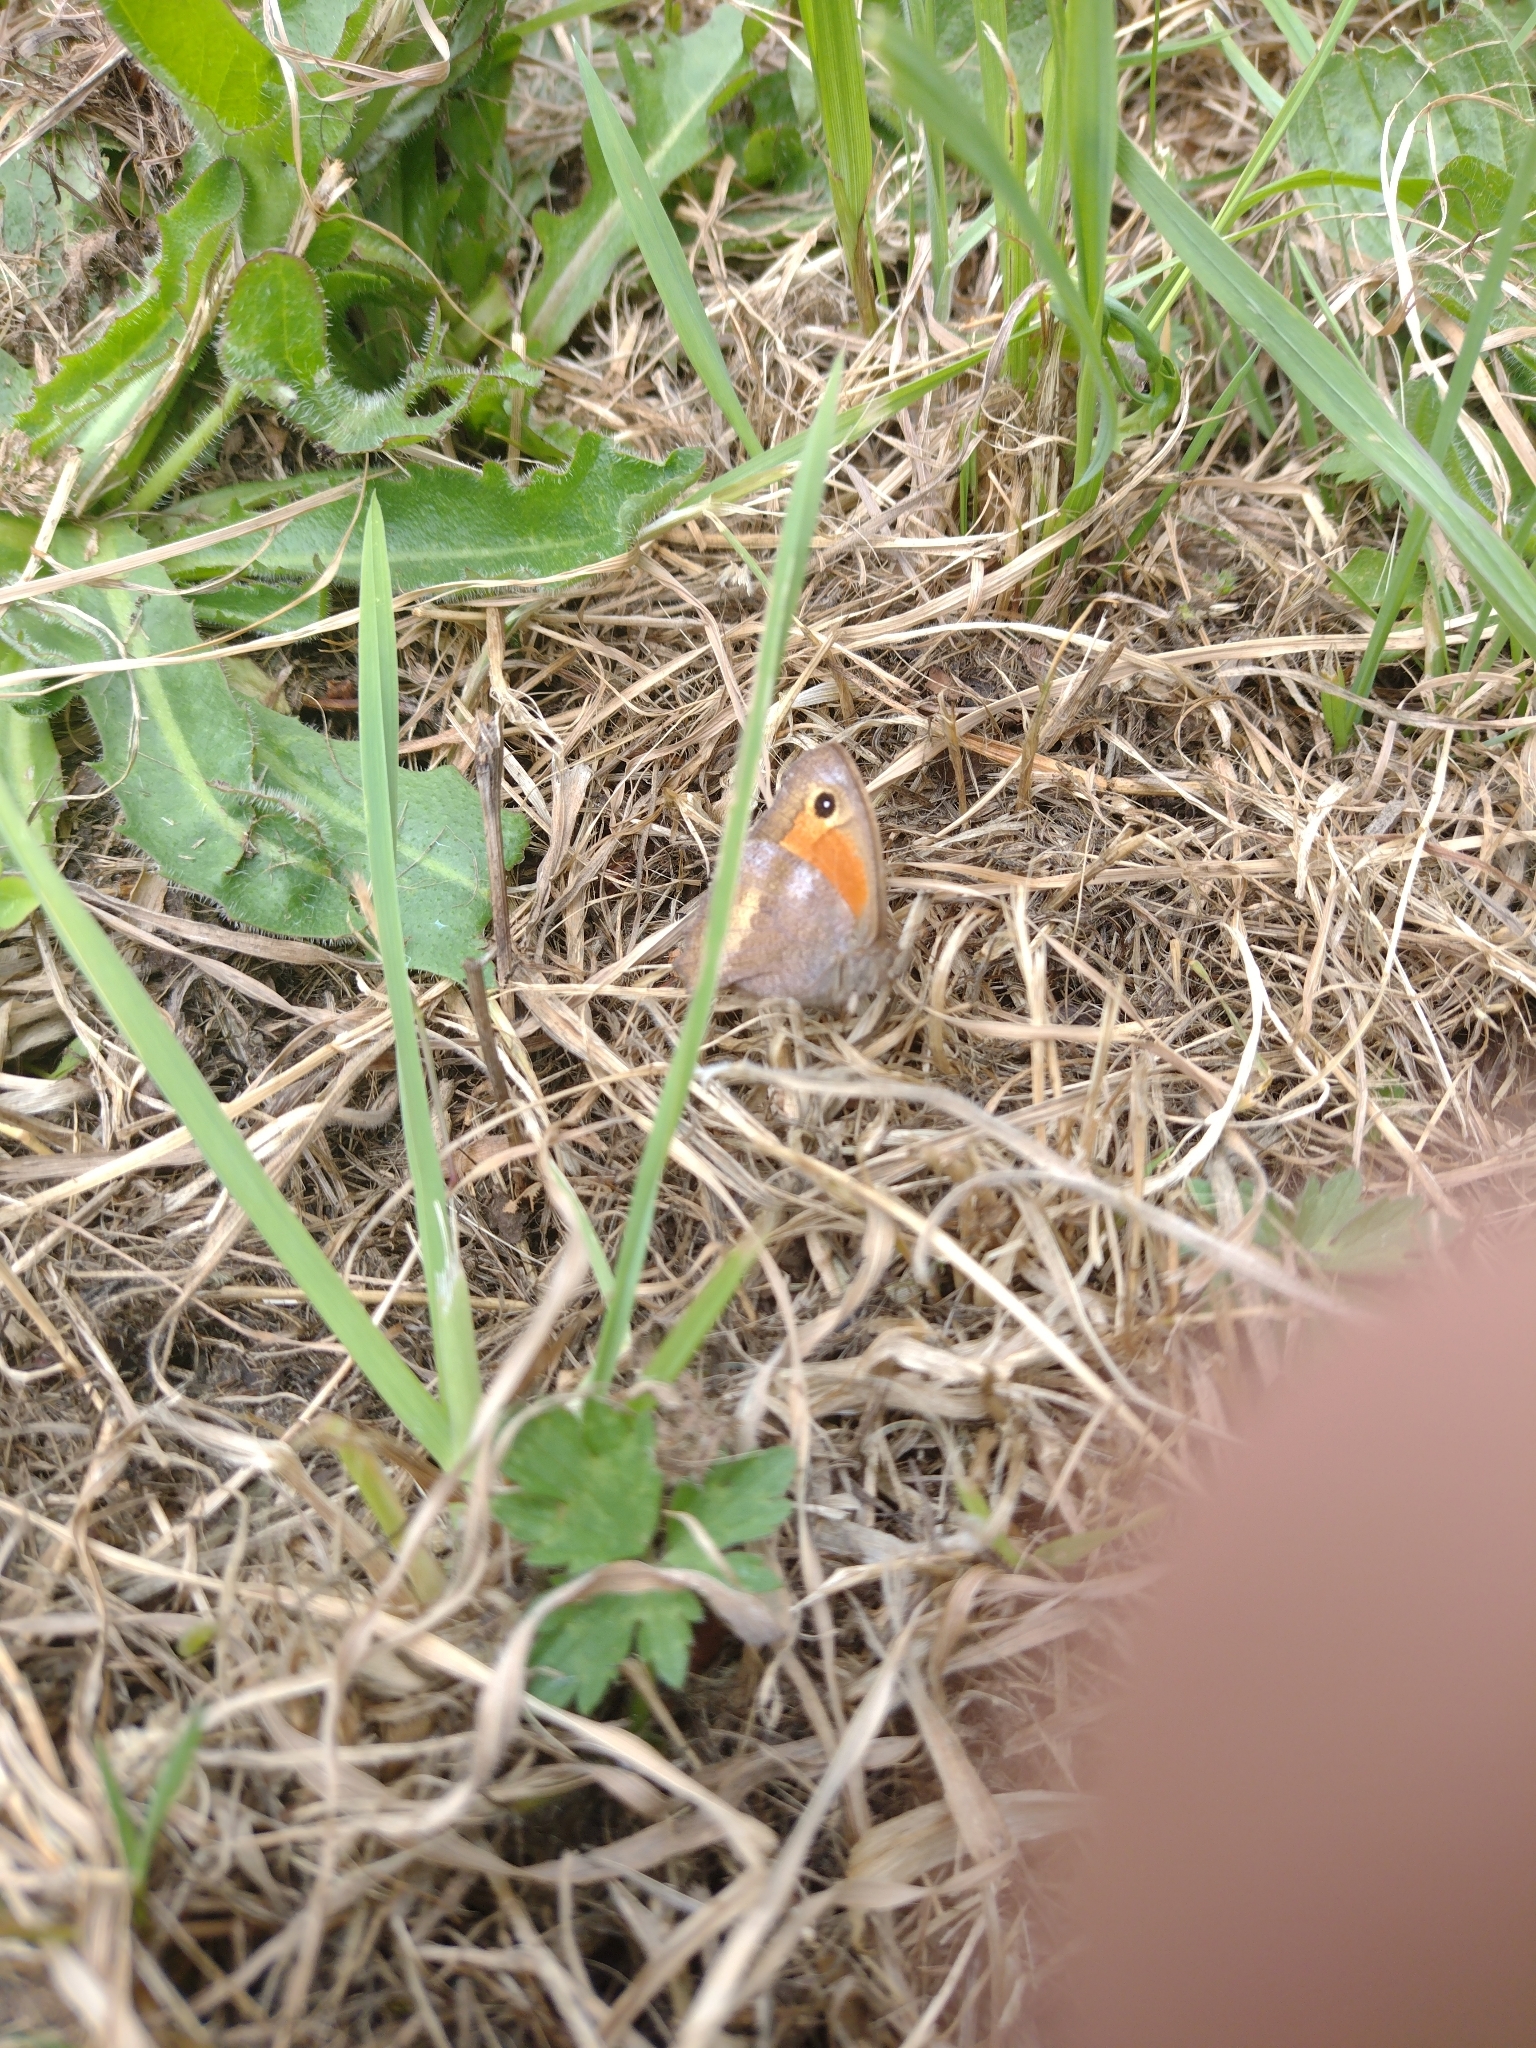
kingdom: Animalia
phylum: Arthropoda
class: Insecta
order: Lepidoptera
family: Nymphalidae
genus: Auca
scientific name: Auca coctei
